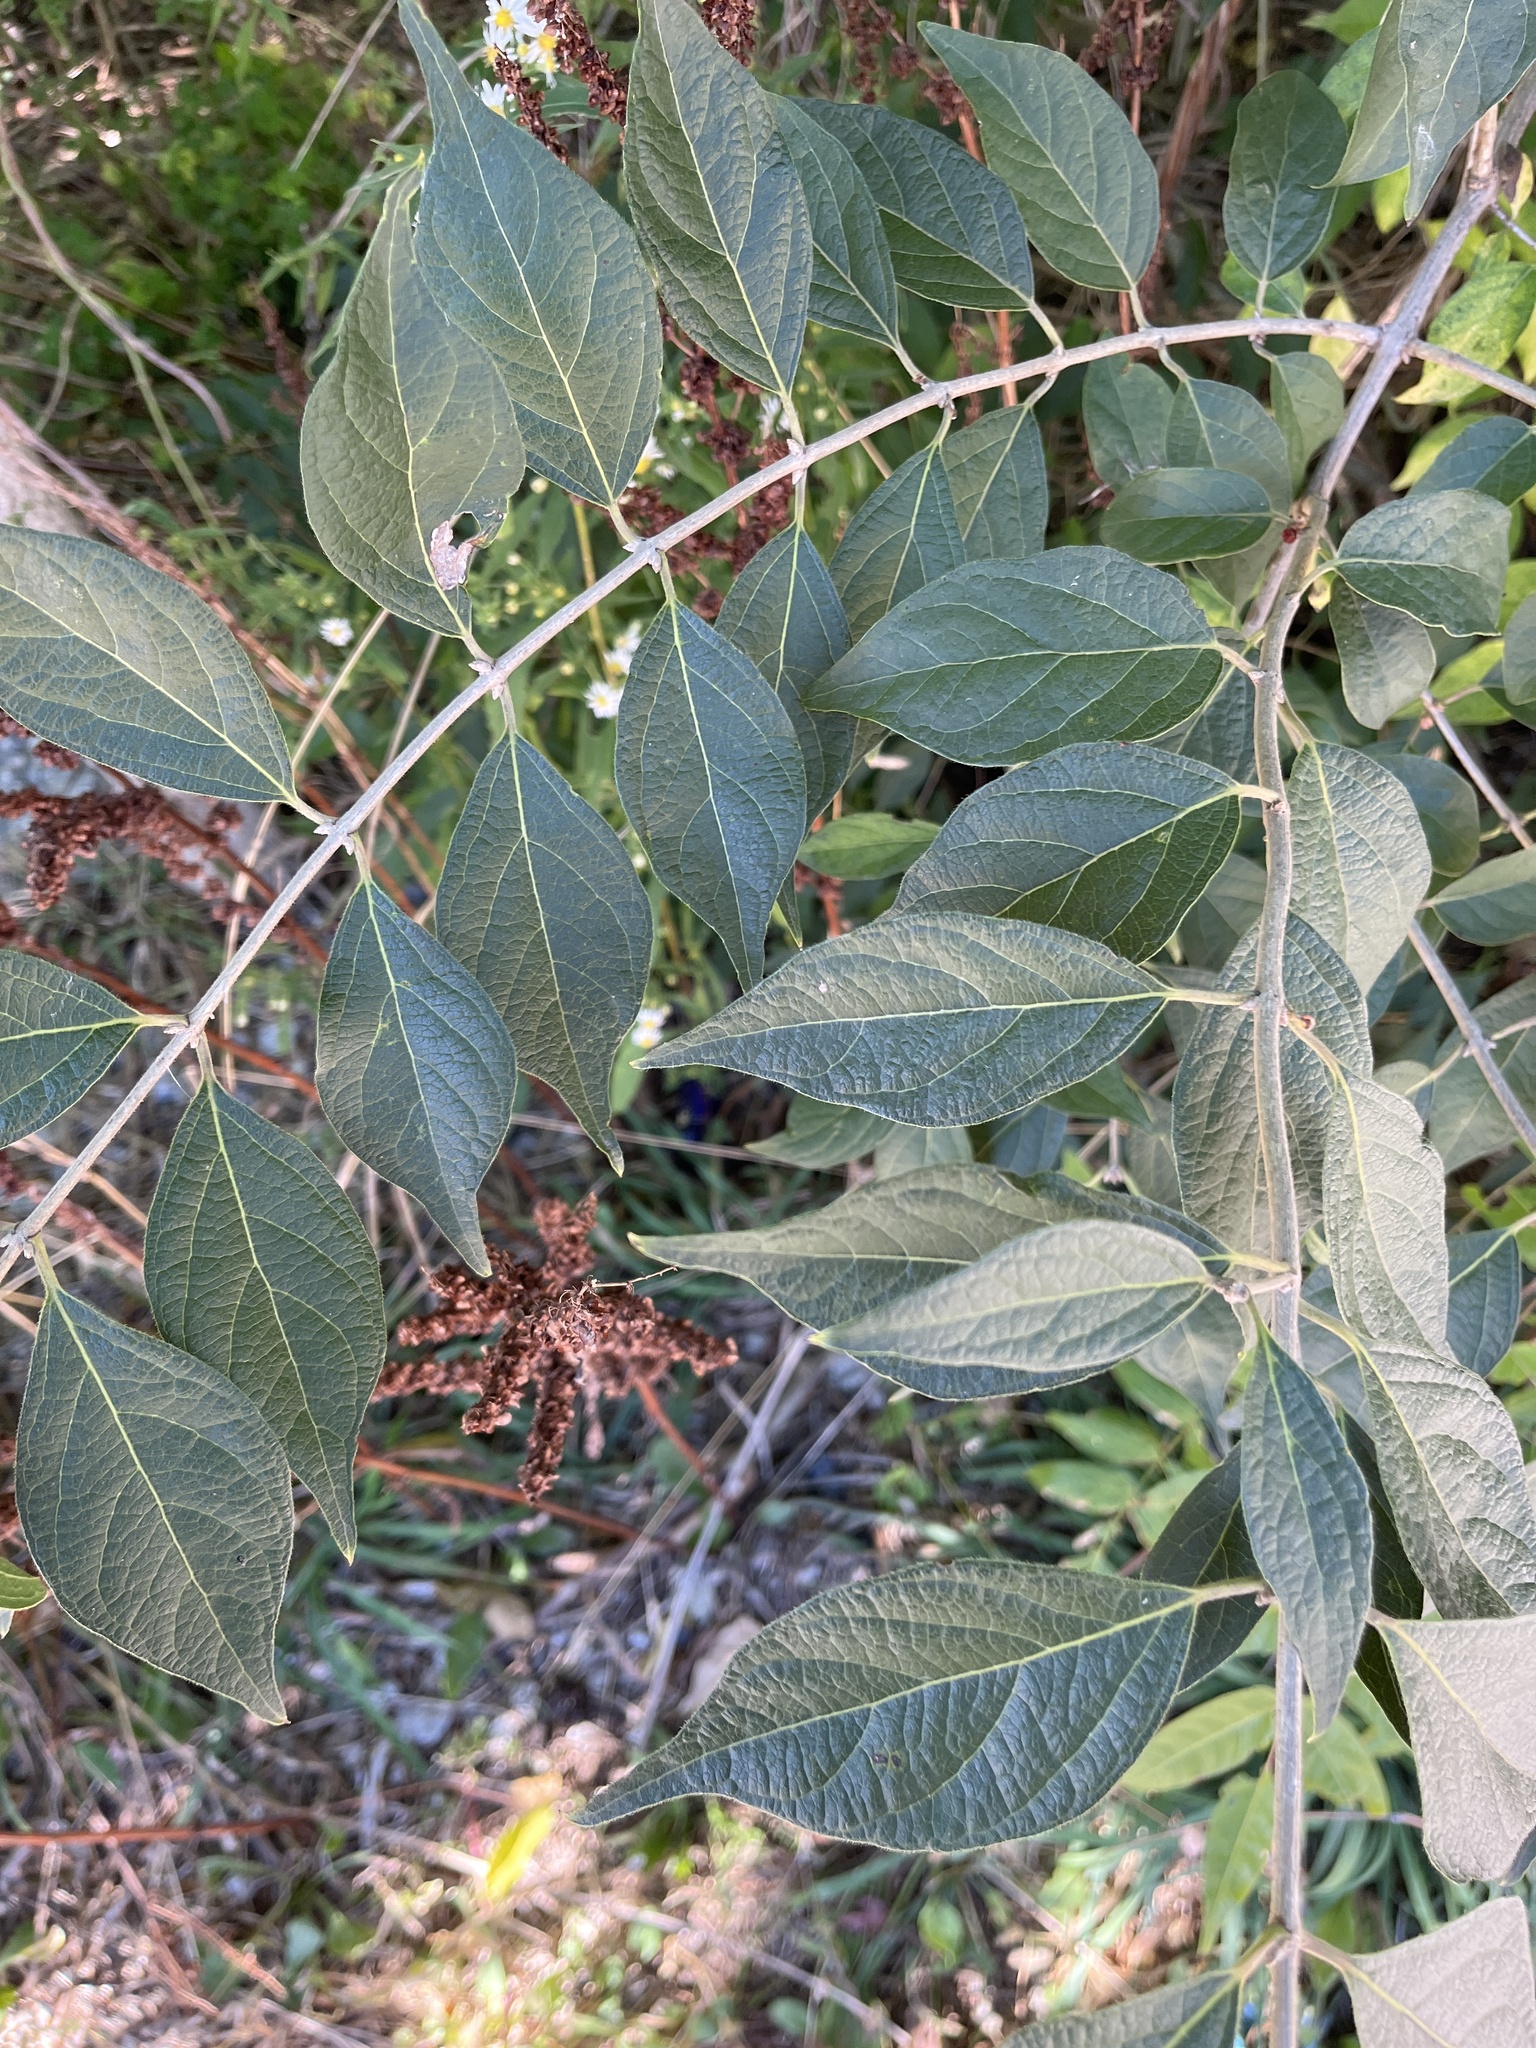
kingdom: Plantae
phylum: Tracheophyta
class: Magnoliopsida
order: Dipsacales
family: Caprifoliaceae
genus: Lonicera
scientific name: Lonicera maackii
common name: Amur honeysuckle
